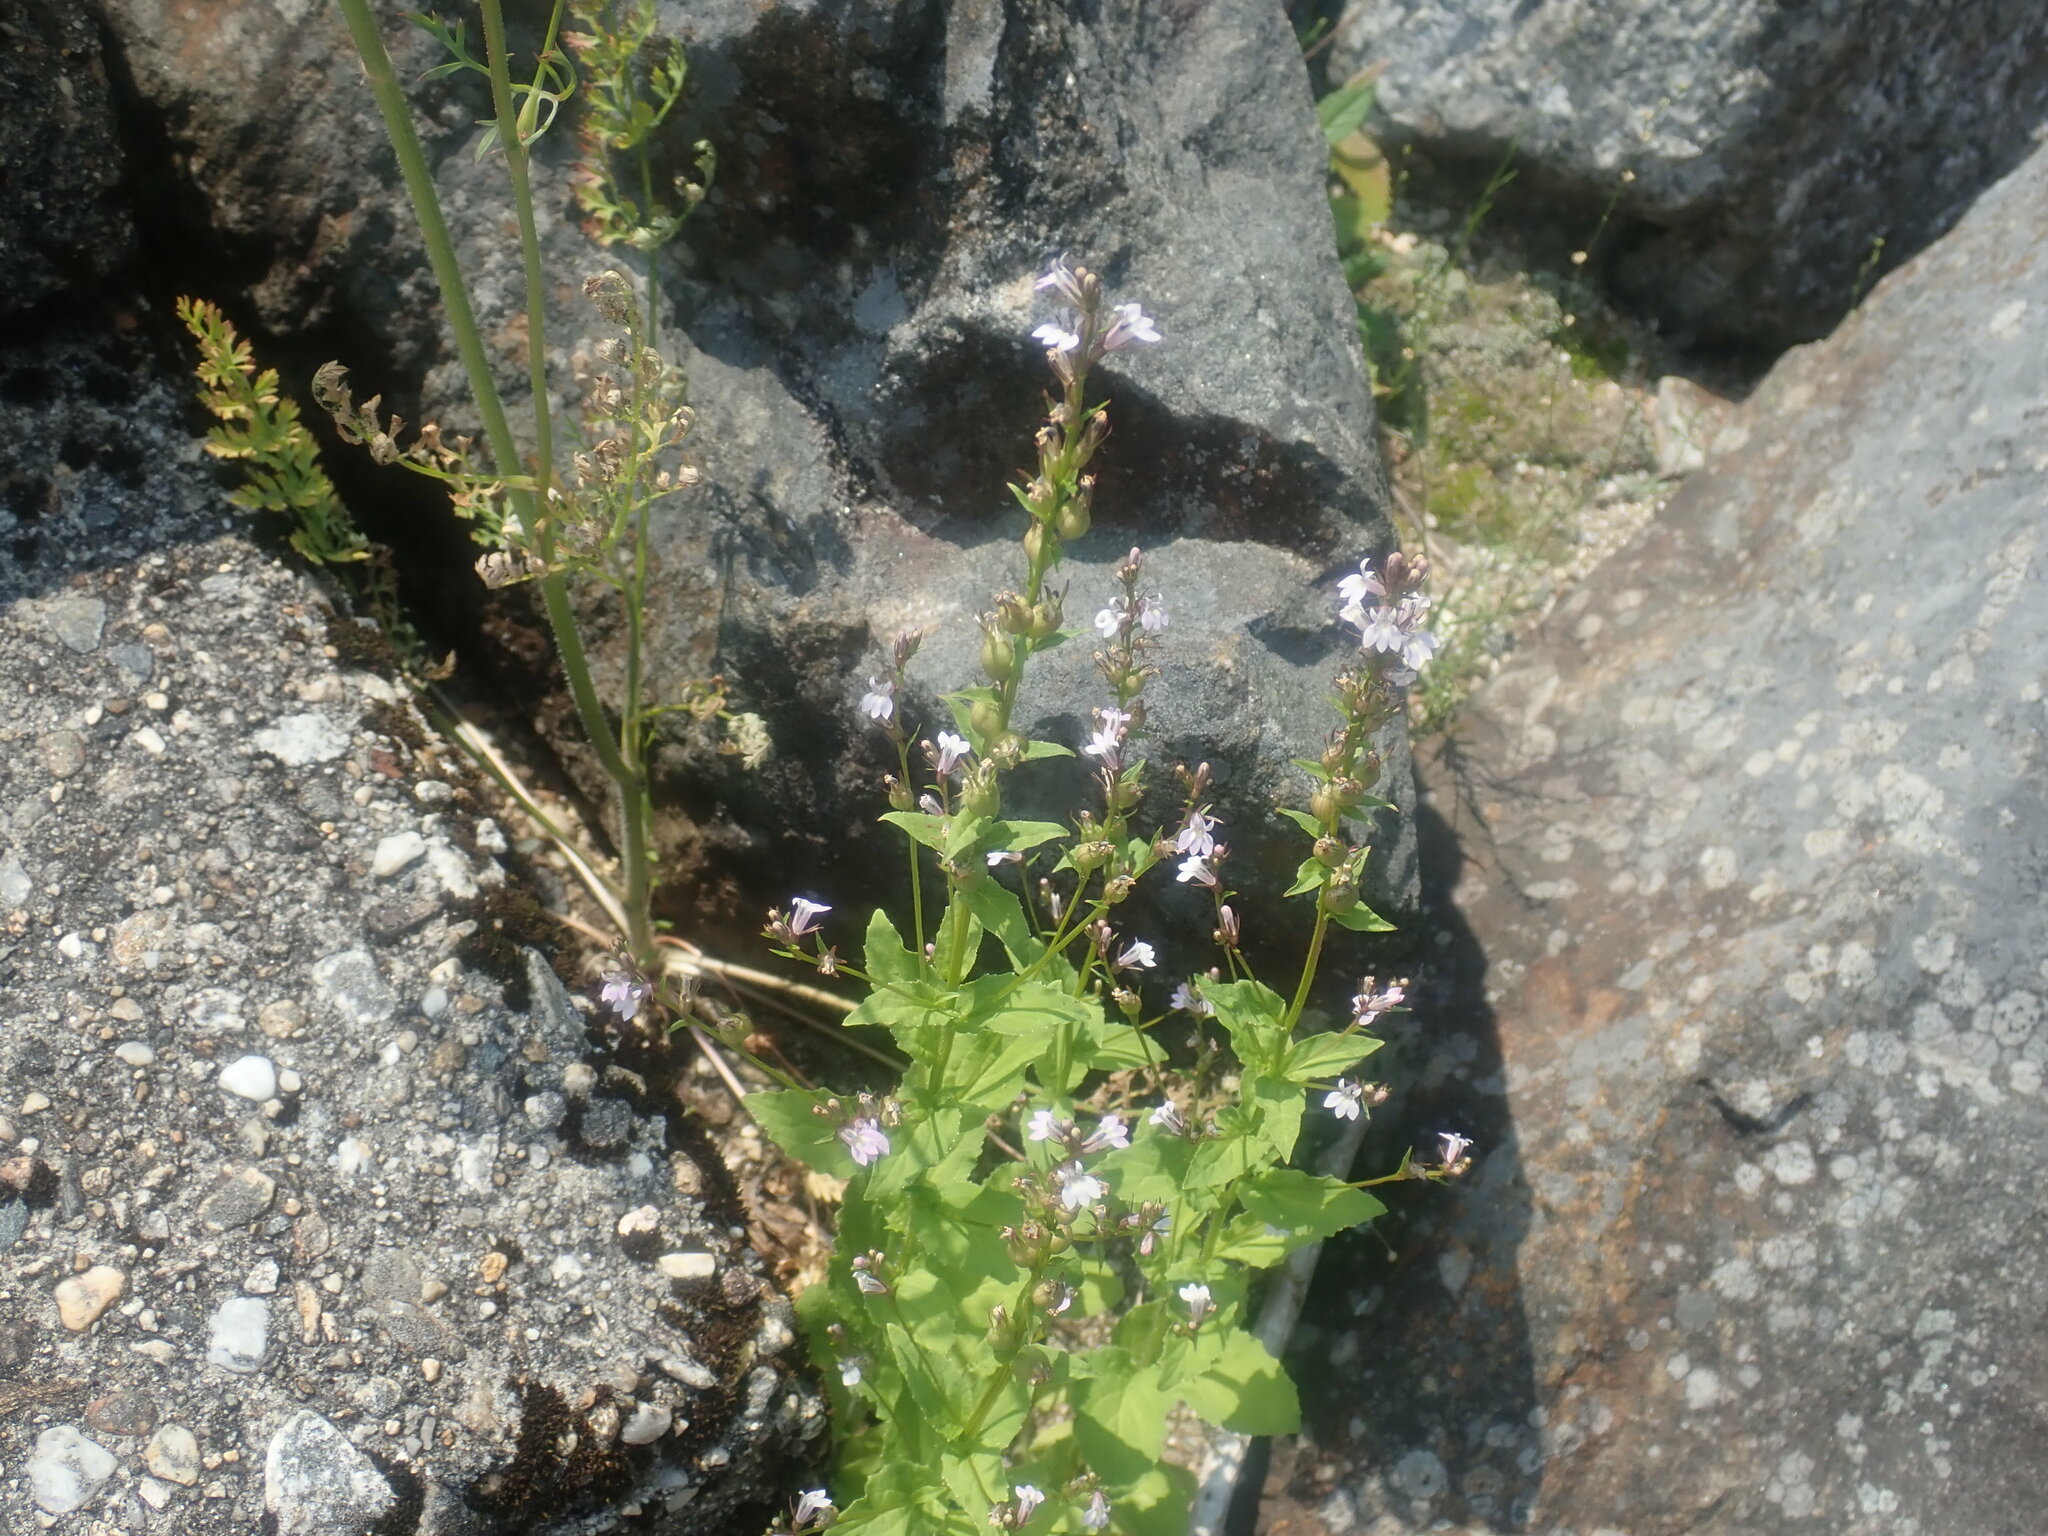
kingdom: Plantae
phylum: Tracheophyta
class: Magnoliopsida
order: Asterales
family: Campanulaceae
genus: Lobelia
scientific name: Lobelia inflata
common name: Indian tobacco
